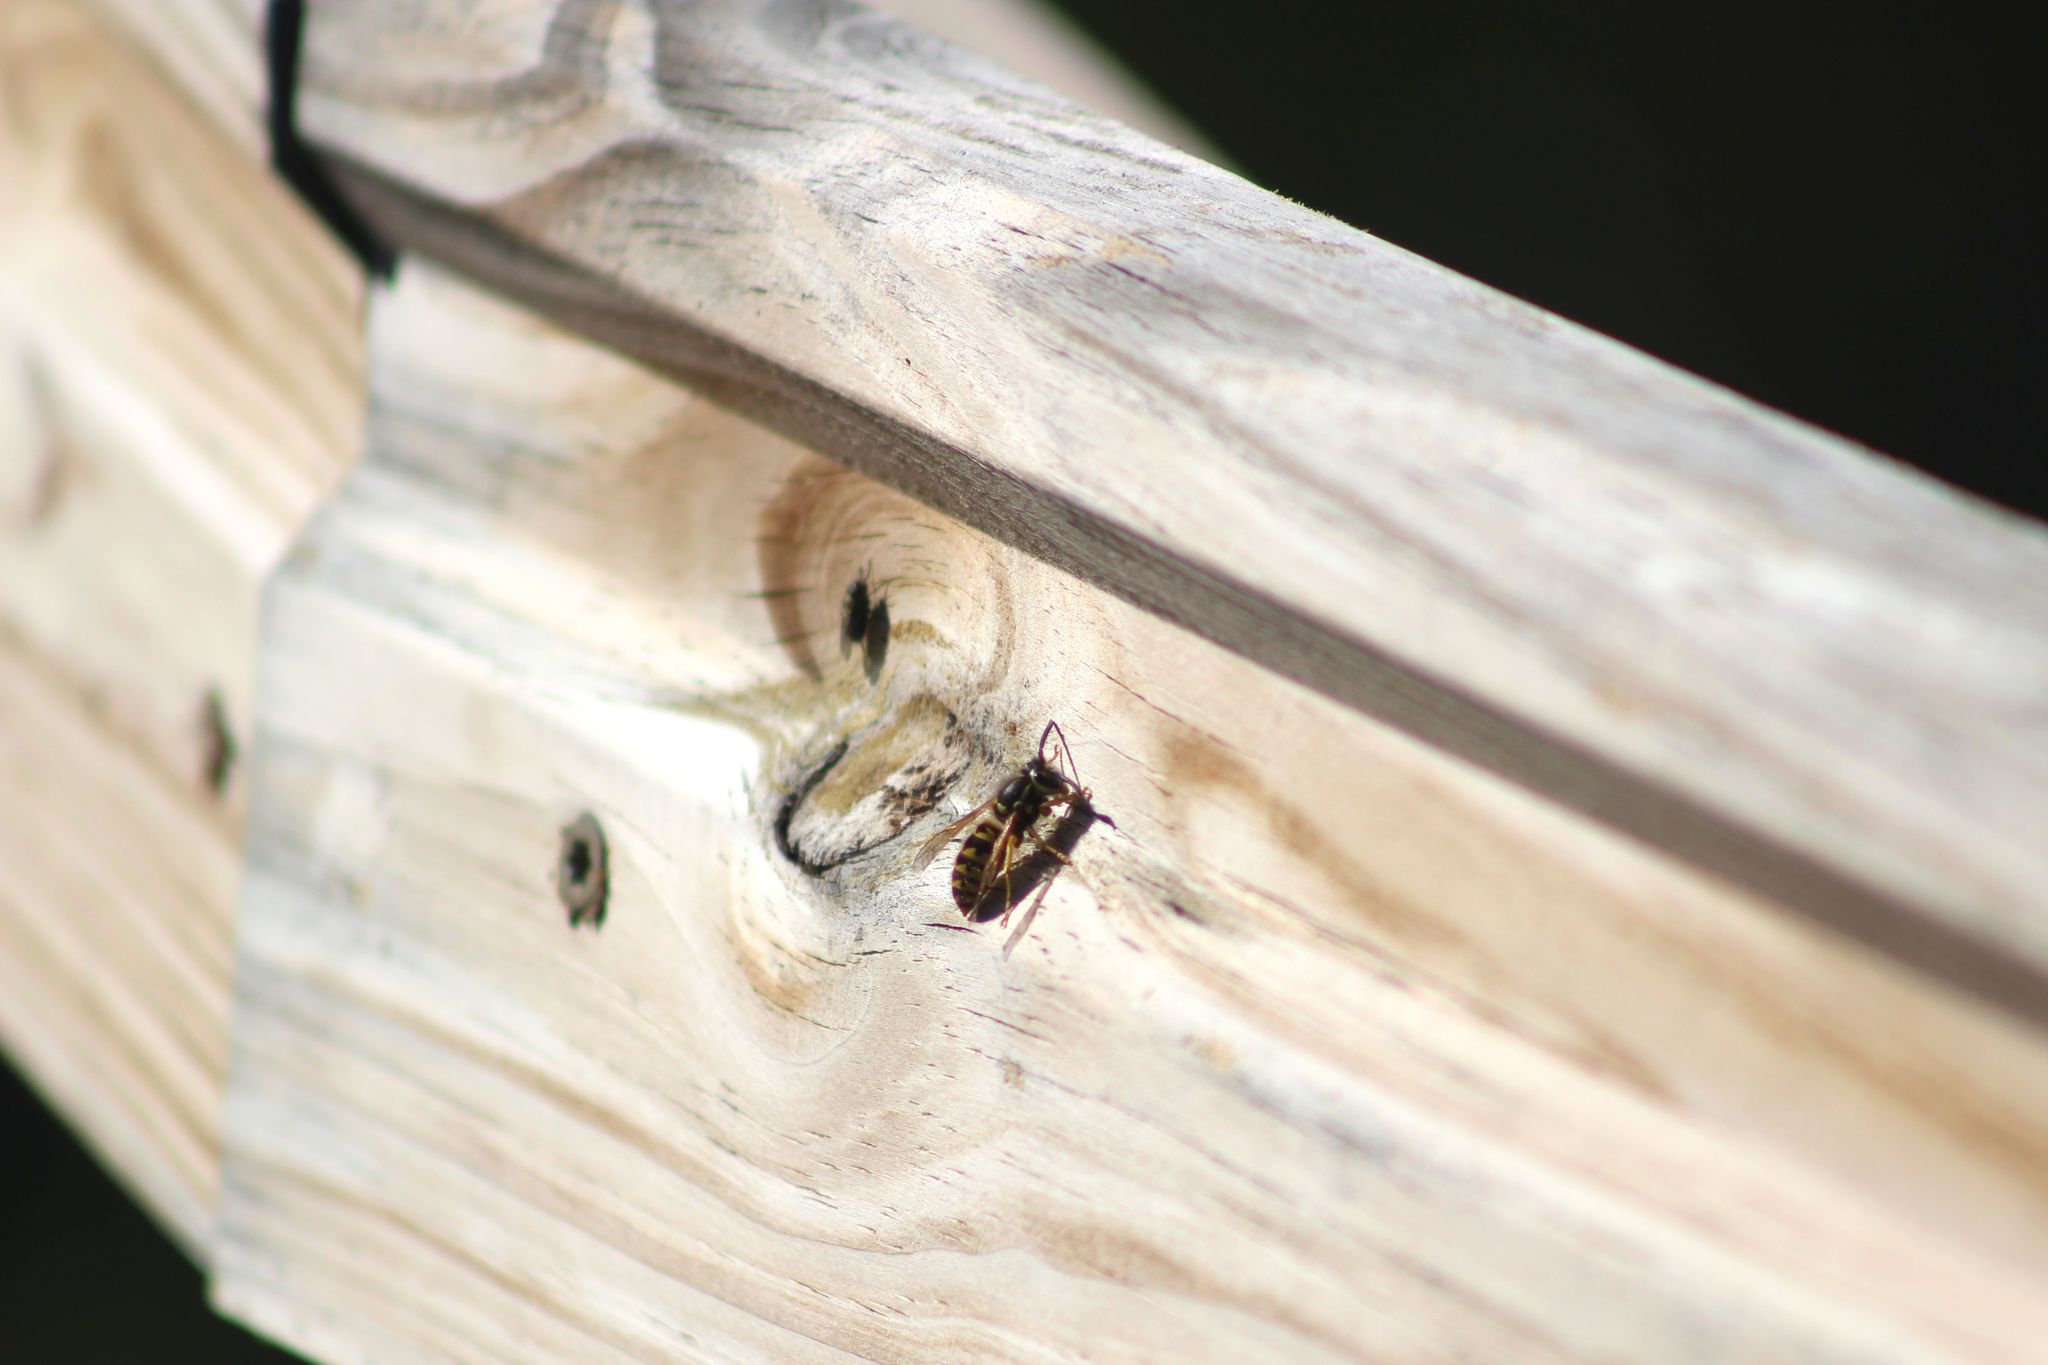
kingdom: Animalia
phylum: Arthropoda
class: Insecta
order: Hymenoptera
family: Vespidae
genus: Vespula
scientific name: Vespula pensylvanica
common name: Western yellowjacket
